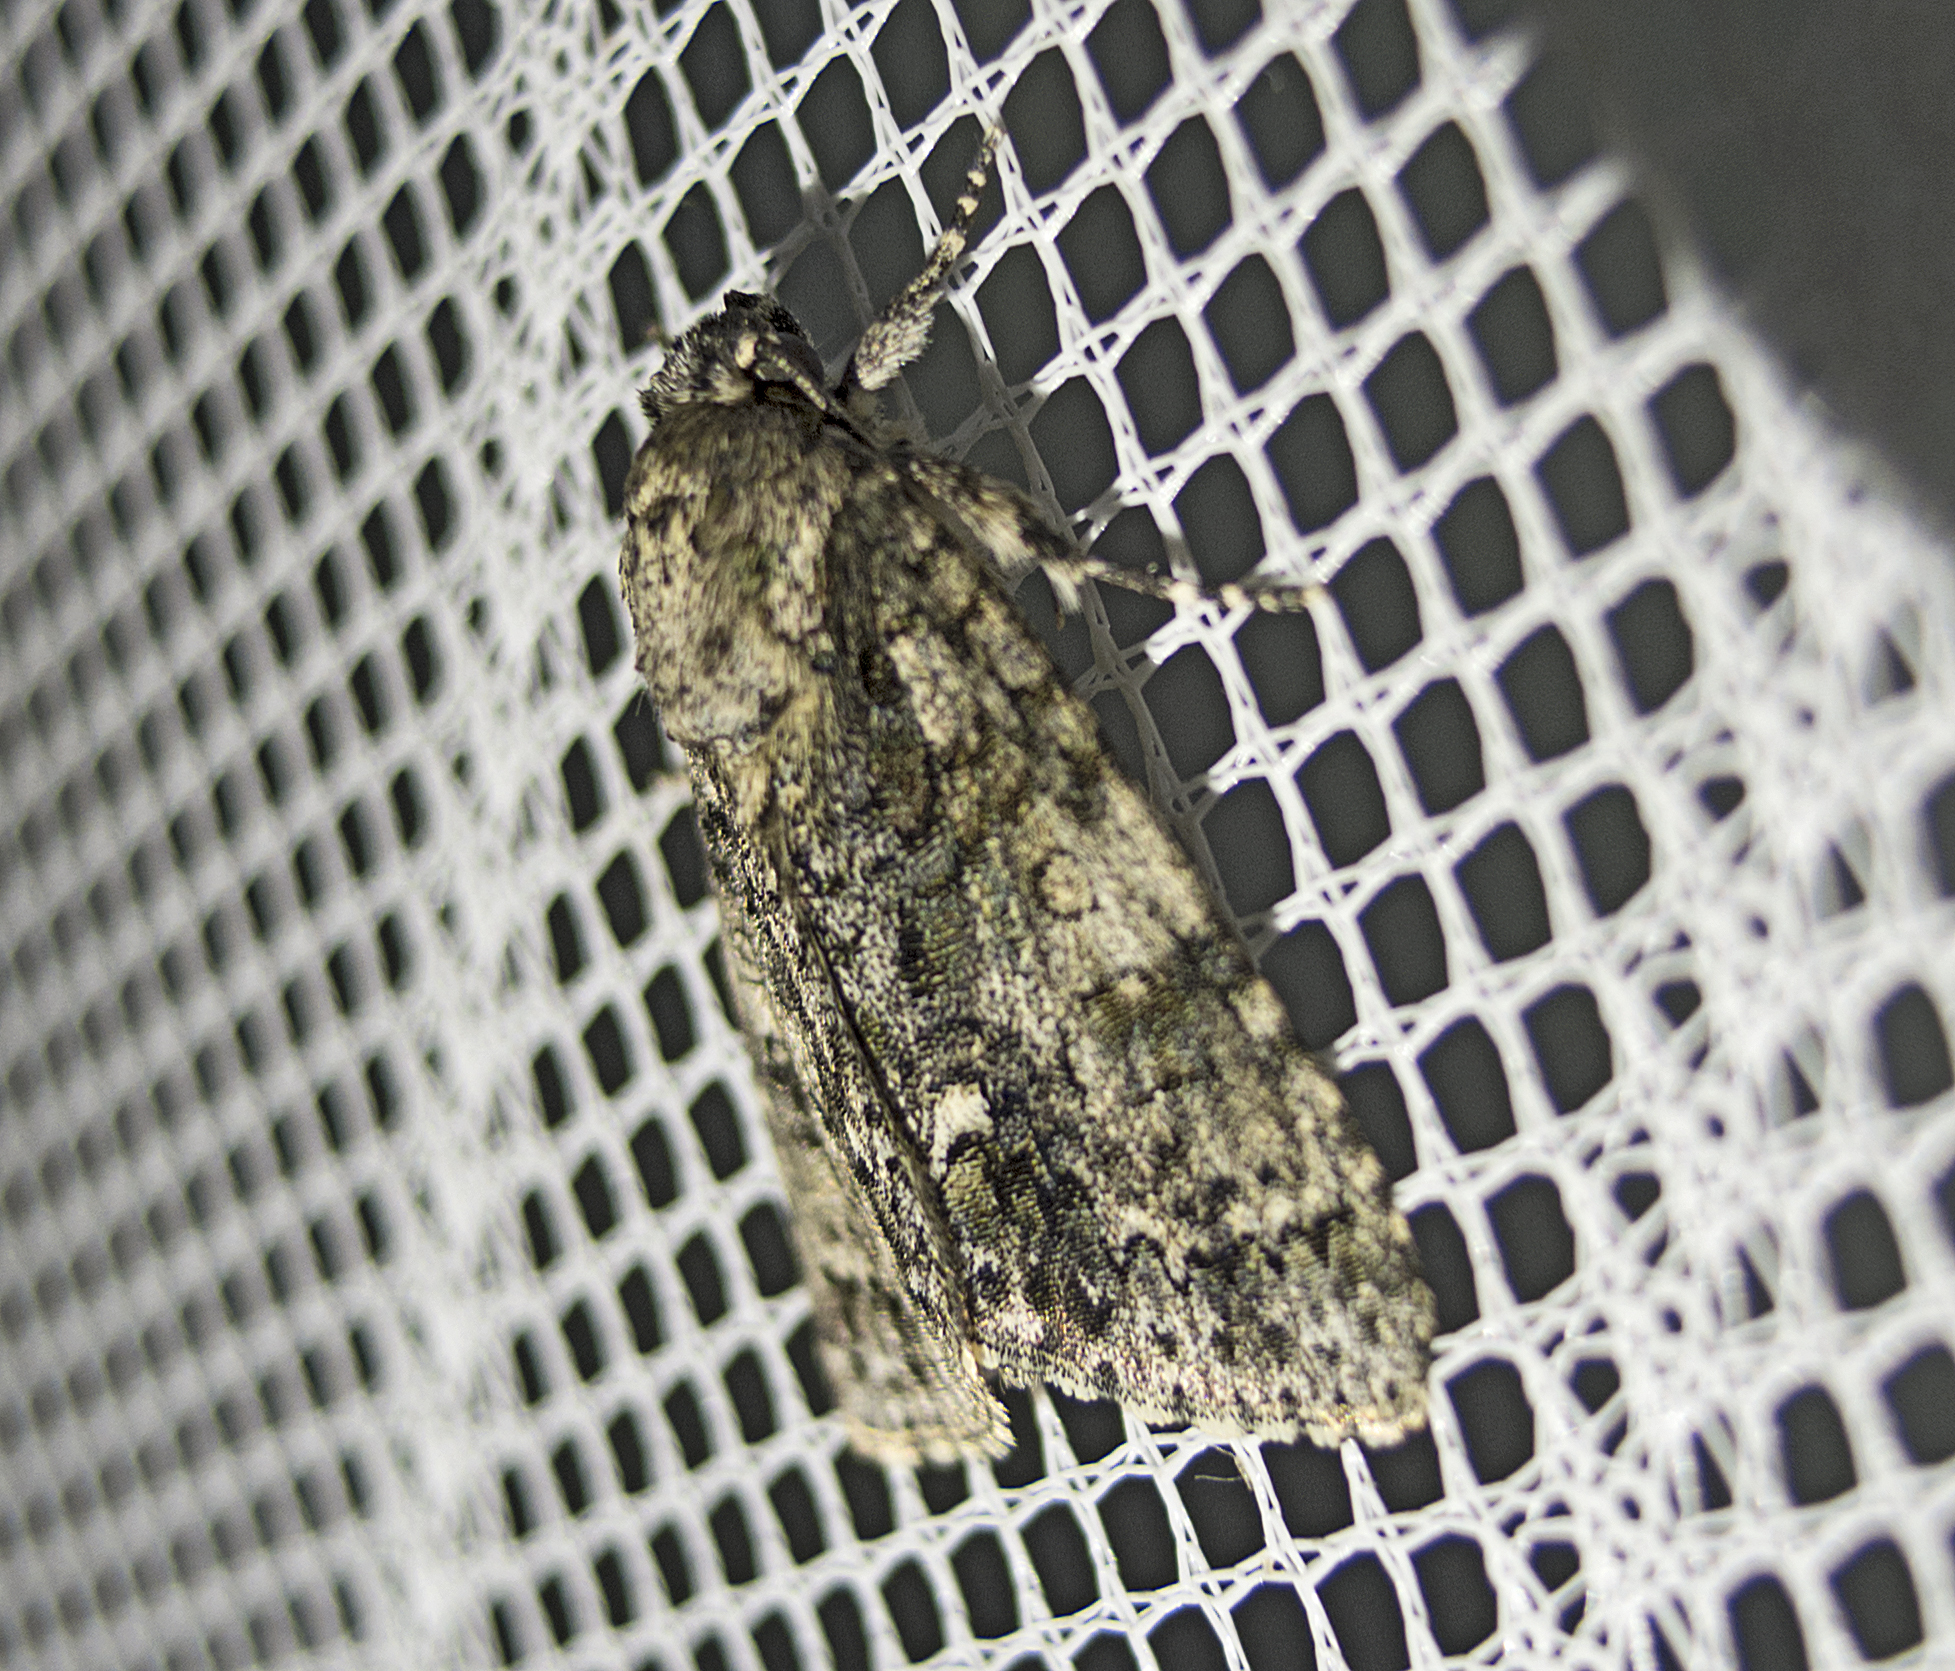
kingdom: Animalia
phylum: Arthropoda
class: Insecta
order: Lepidoptera
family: Noctuidae
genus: Acronicta
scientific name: Acronicta rumicis
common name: Knot grass
